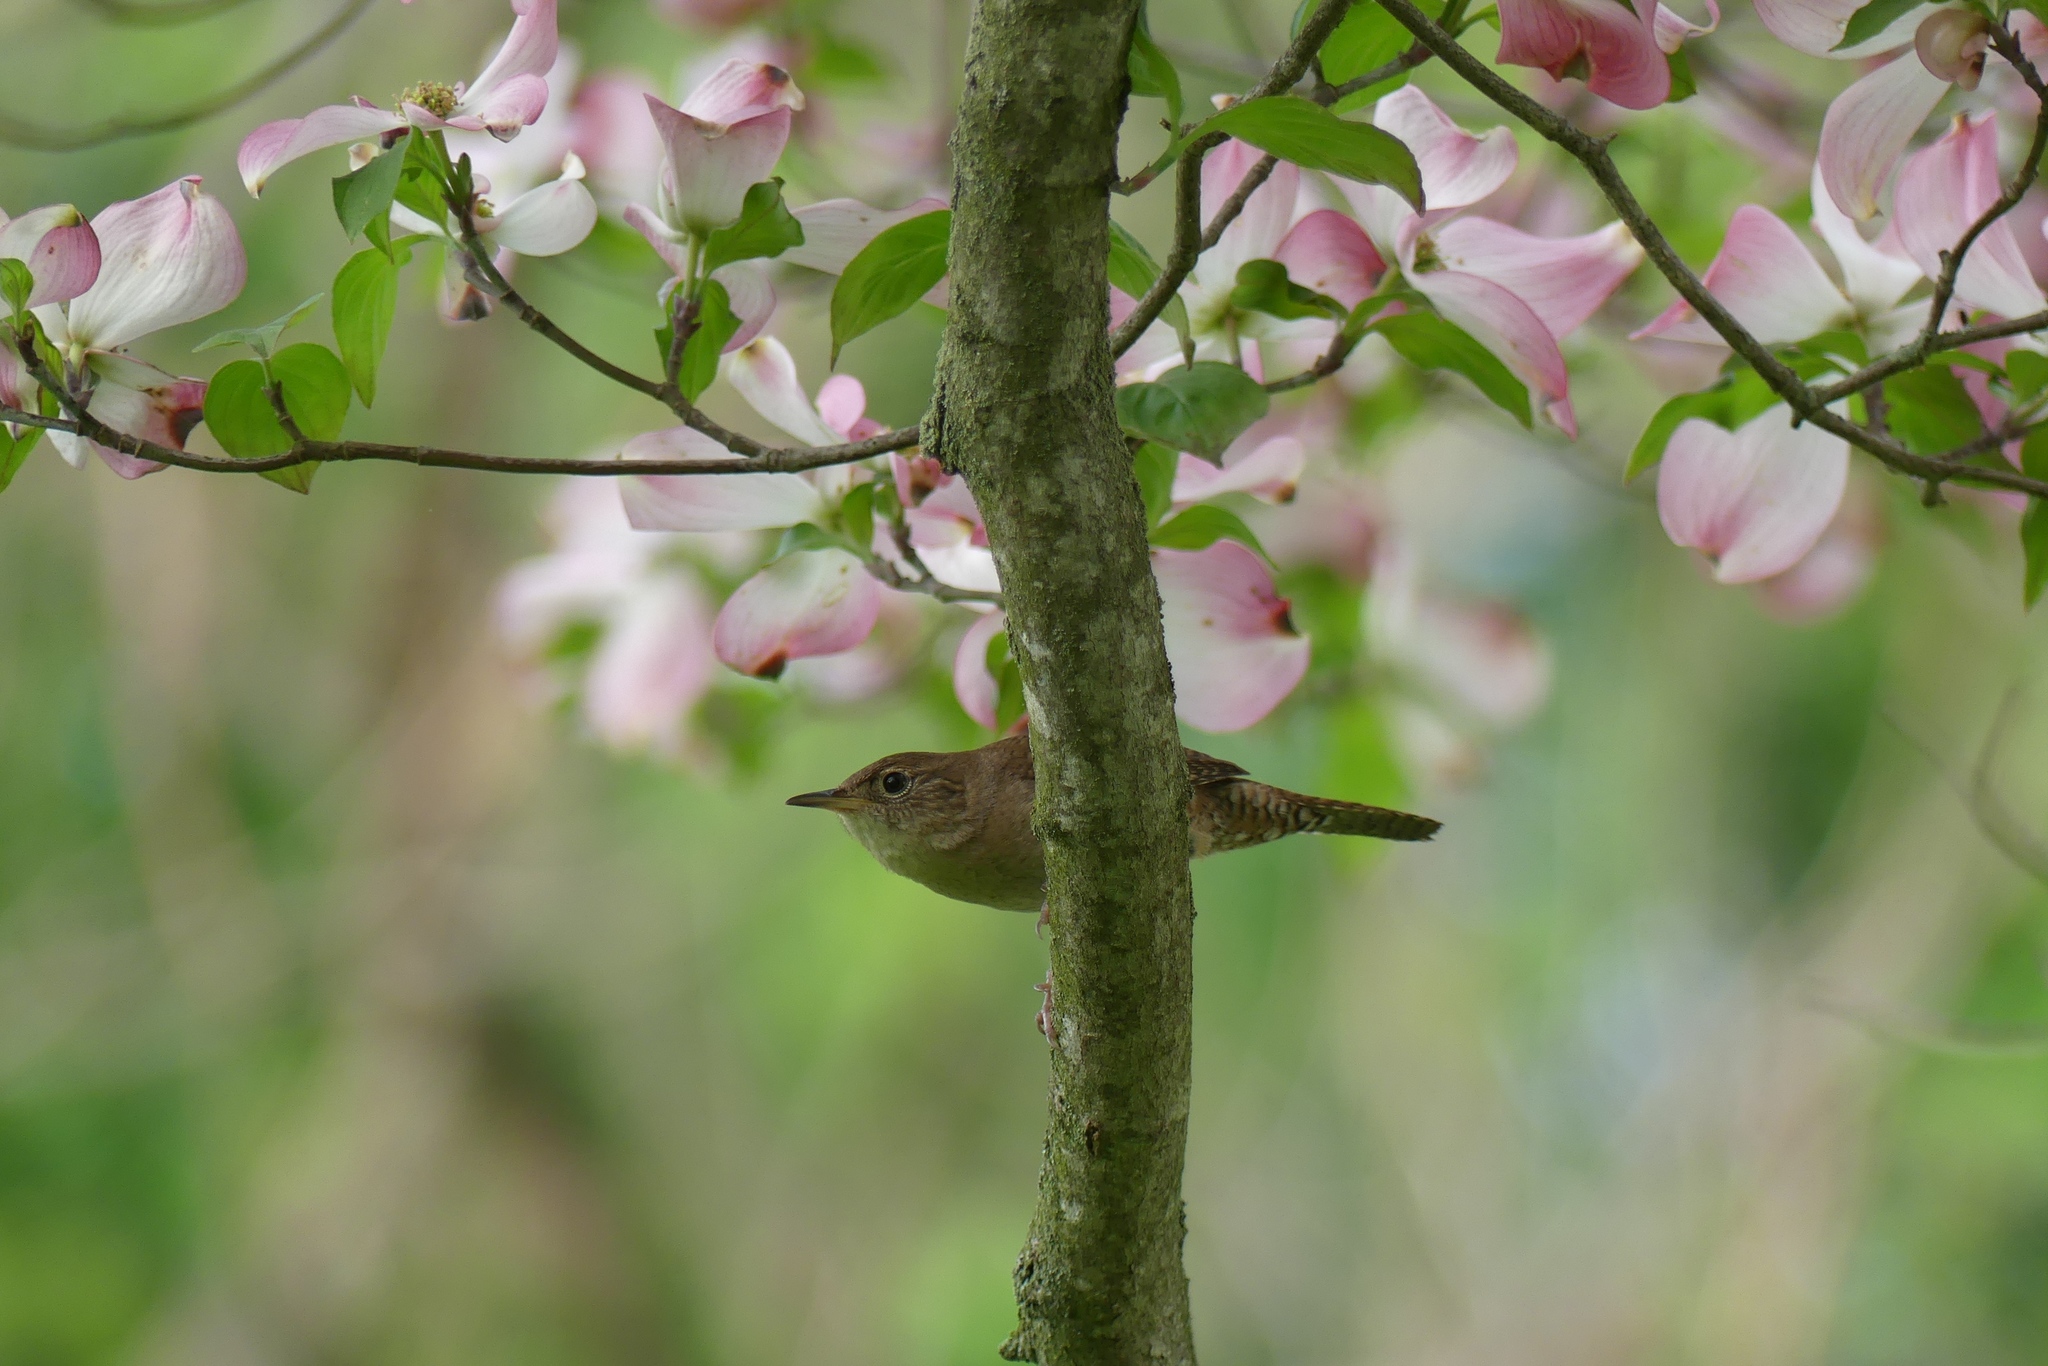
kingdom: Animalia
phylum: Chordata
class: Aves
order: Passeriformes
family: Troglodytidae
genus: Troglodytes
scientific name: Troglodytes aedon
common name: House wren
